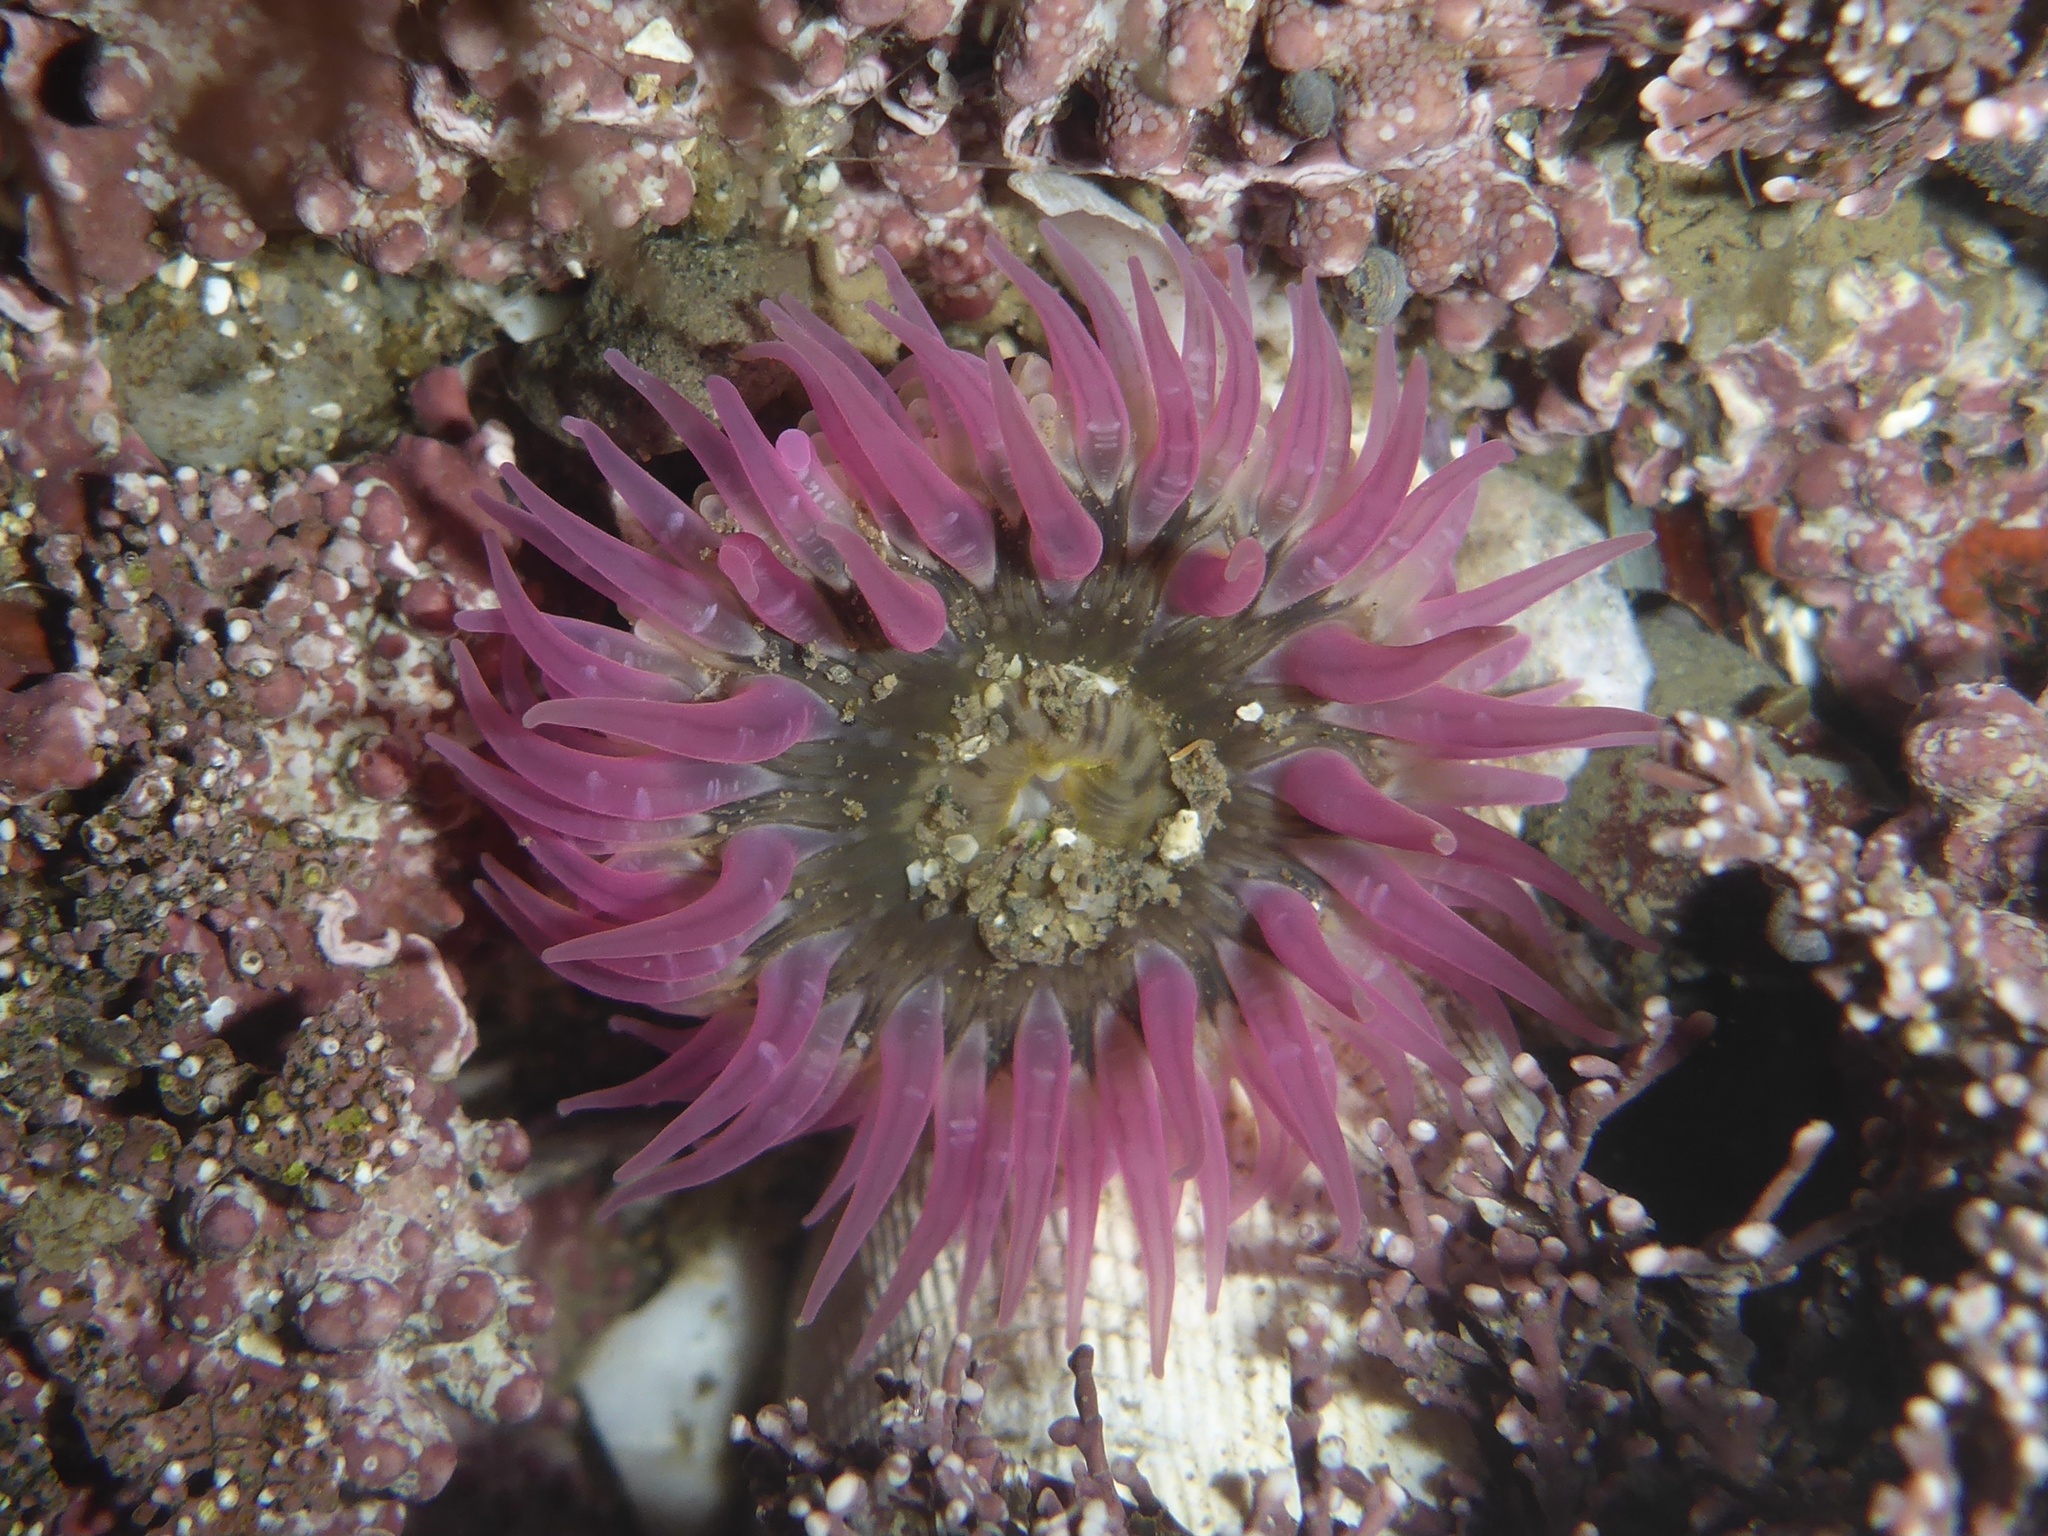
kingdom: Animalia
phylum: Cnidaria
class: Anthozoa
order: Actiniaria
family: Actiniidae
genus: Anthopleura
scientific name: Anthopleura artemisia
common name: Buried sea anemone
